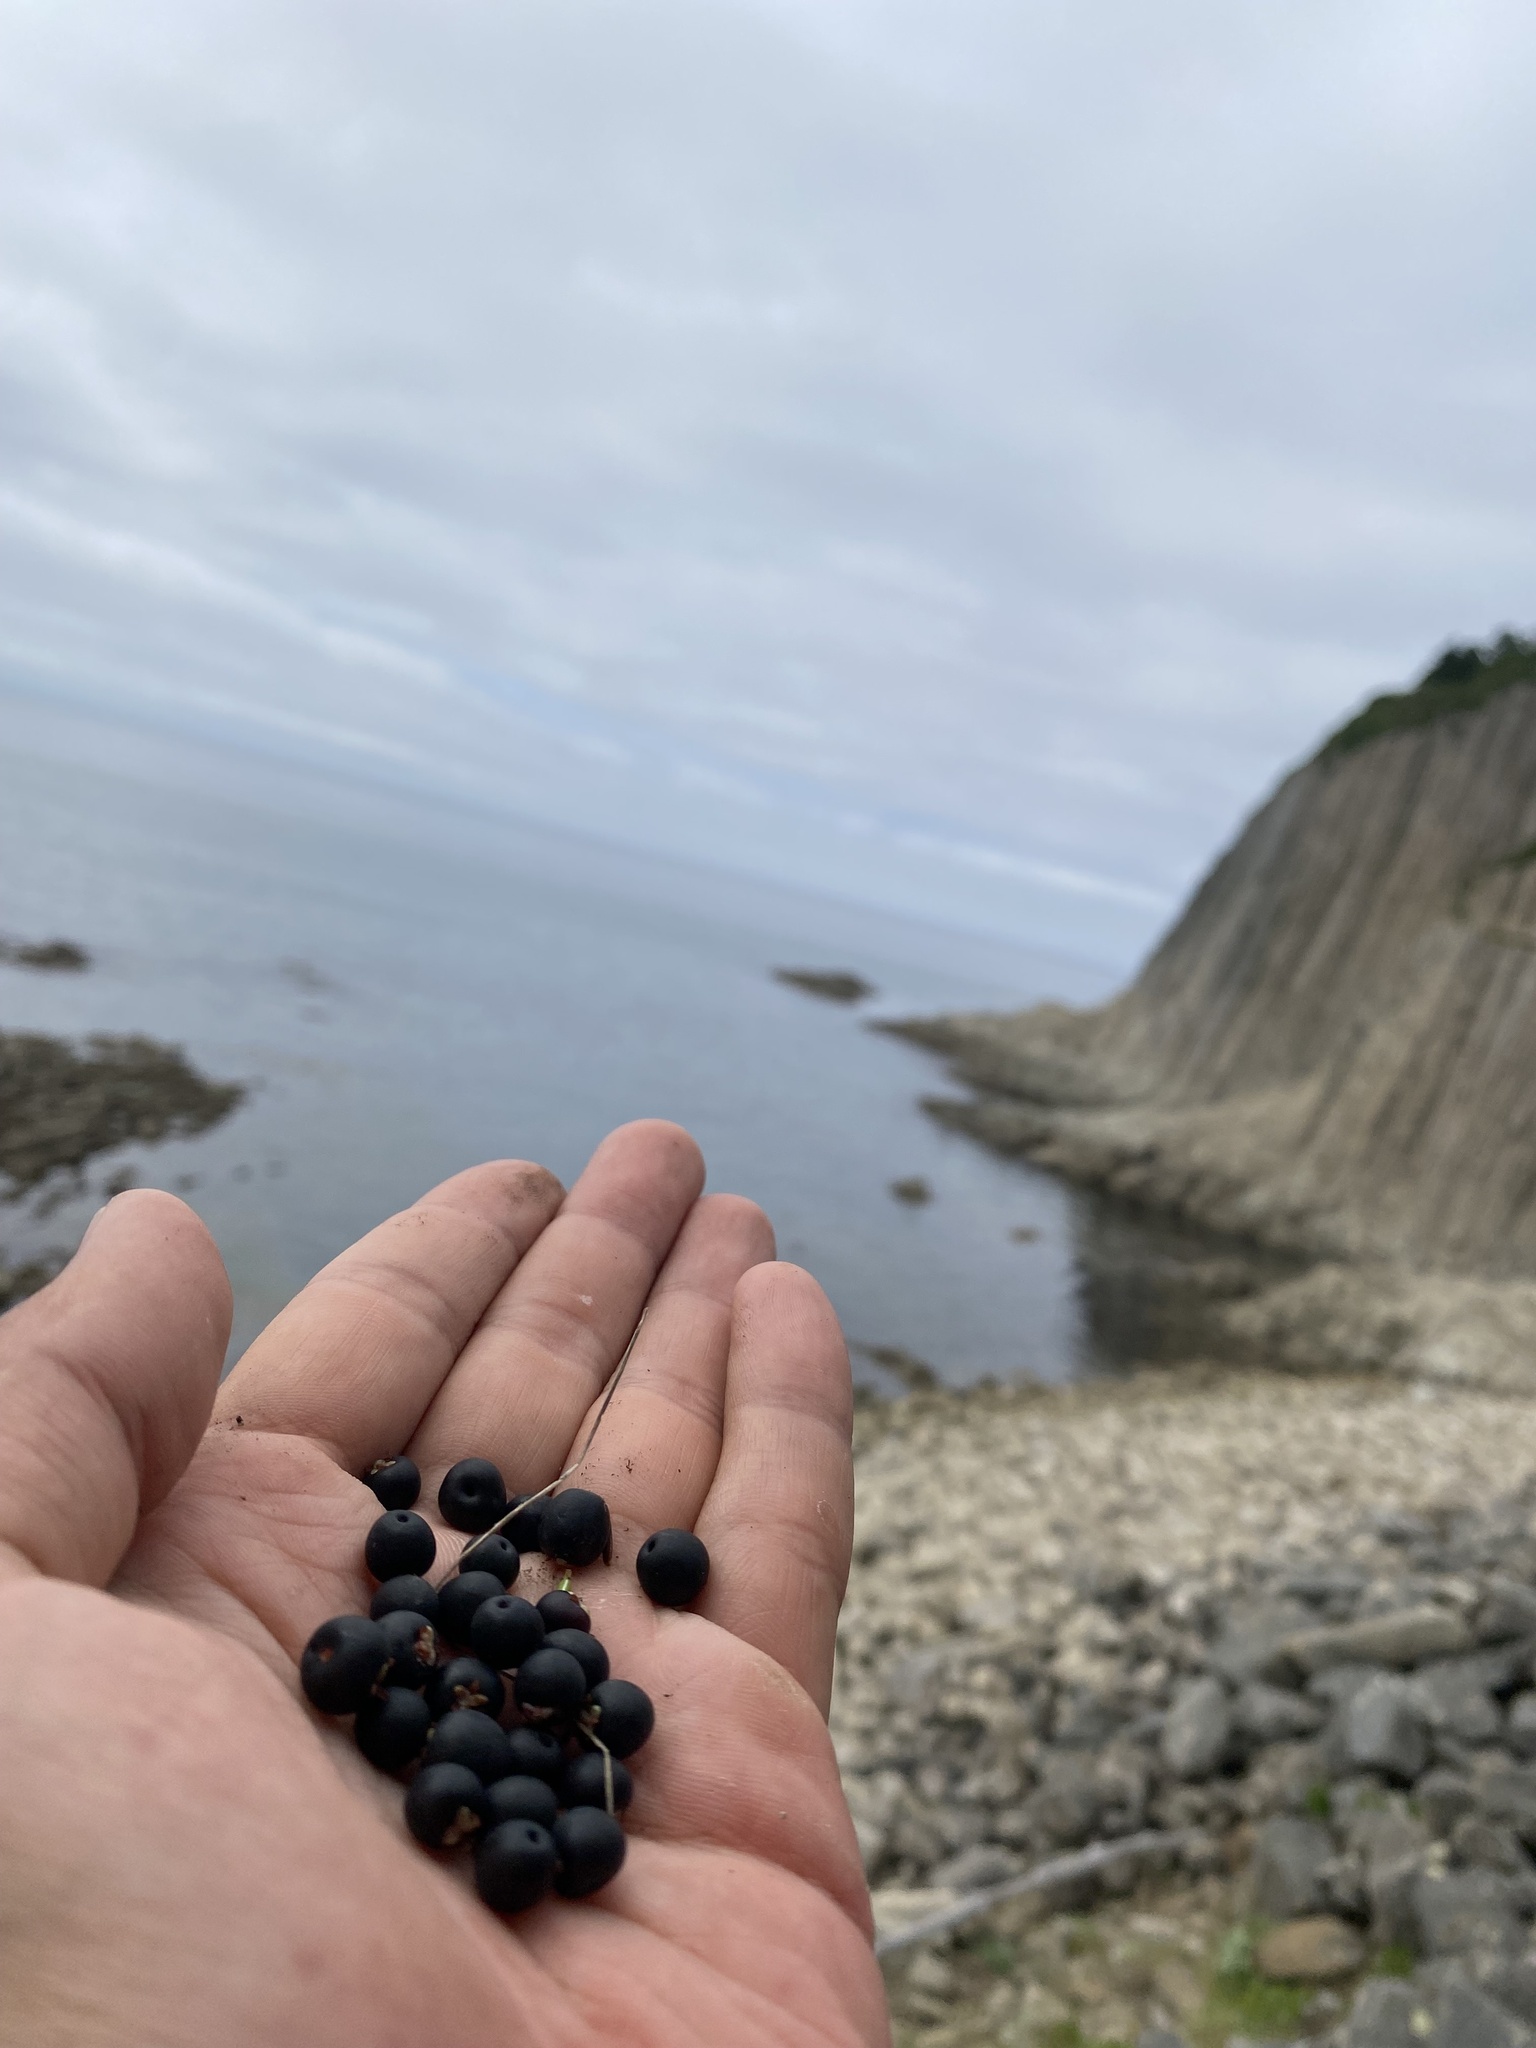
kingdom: Plantae
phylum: Tracheophyta
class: Magnoliopsida
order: Ericales
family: Ericaceae
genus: Empetrum
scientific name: Empetrum nigrum
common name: Black crowberry
